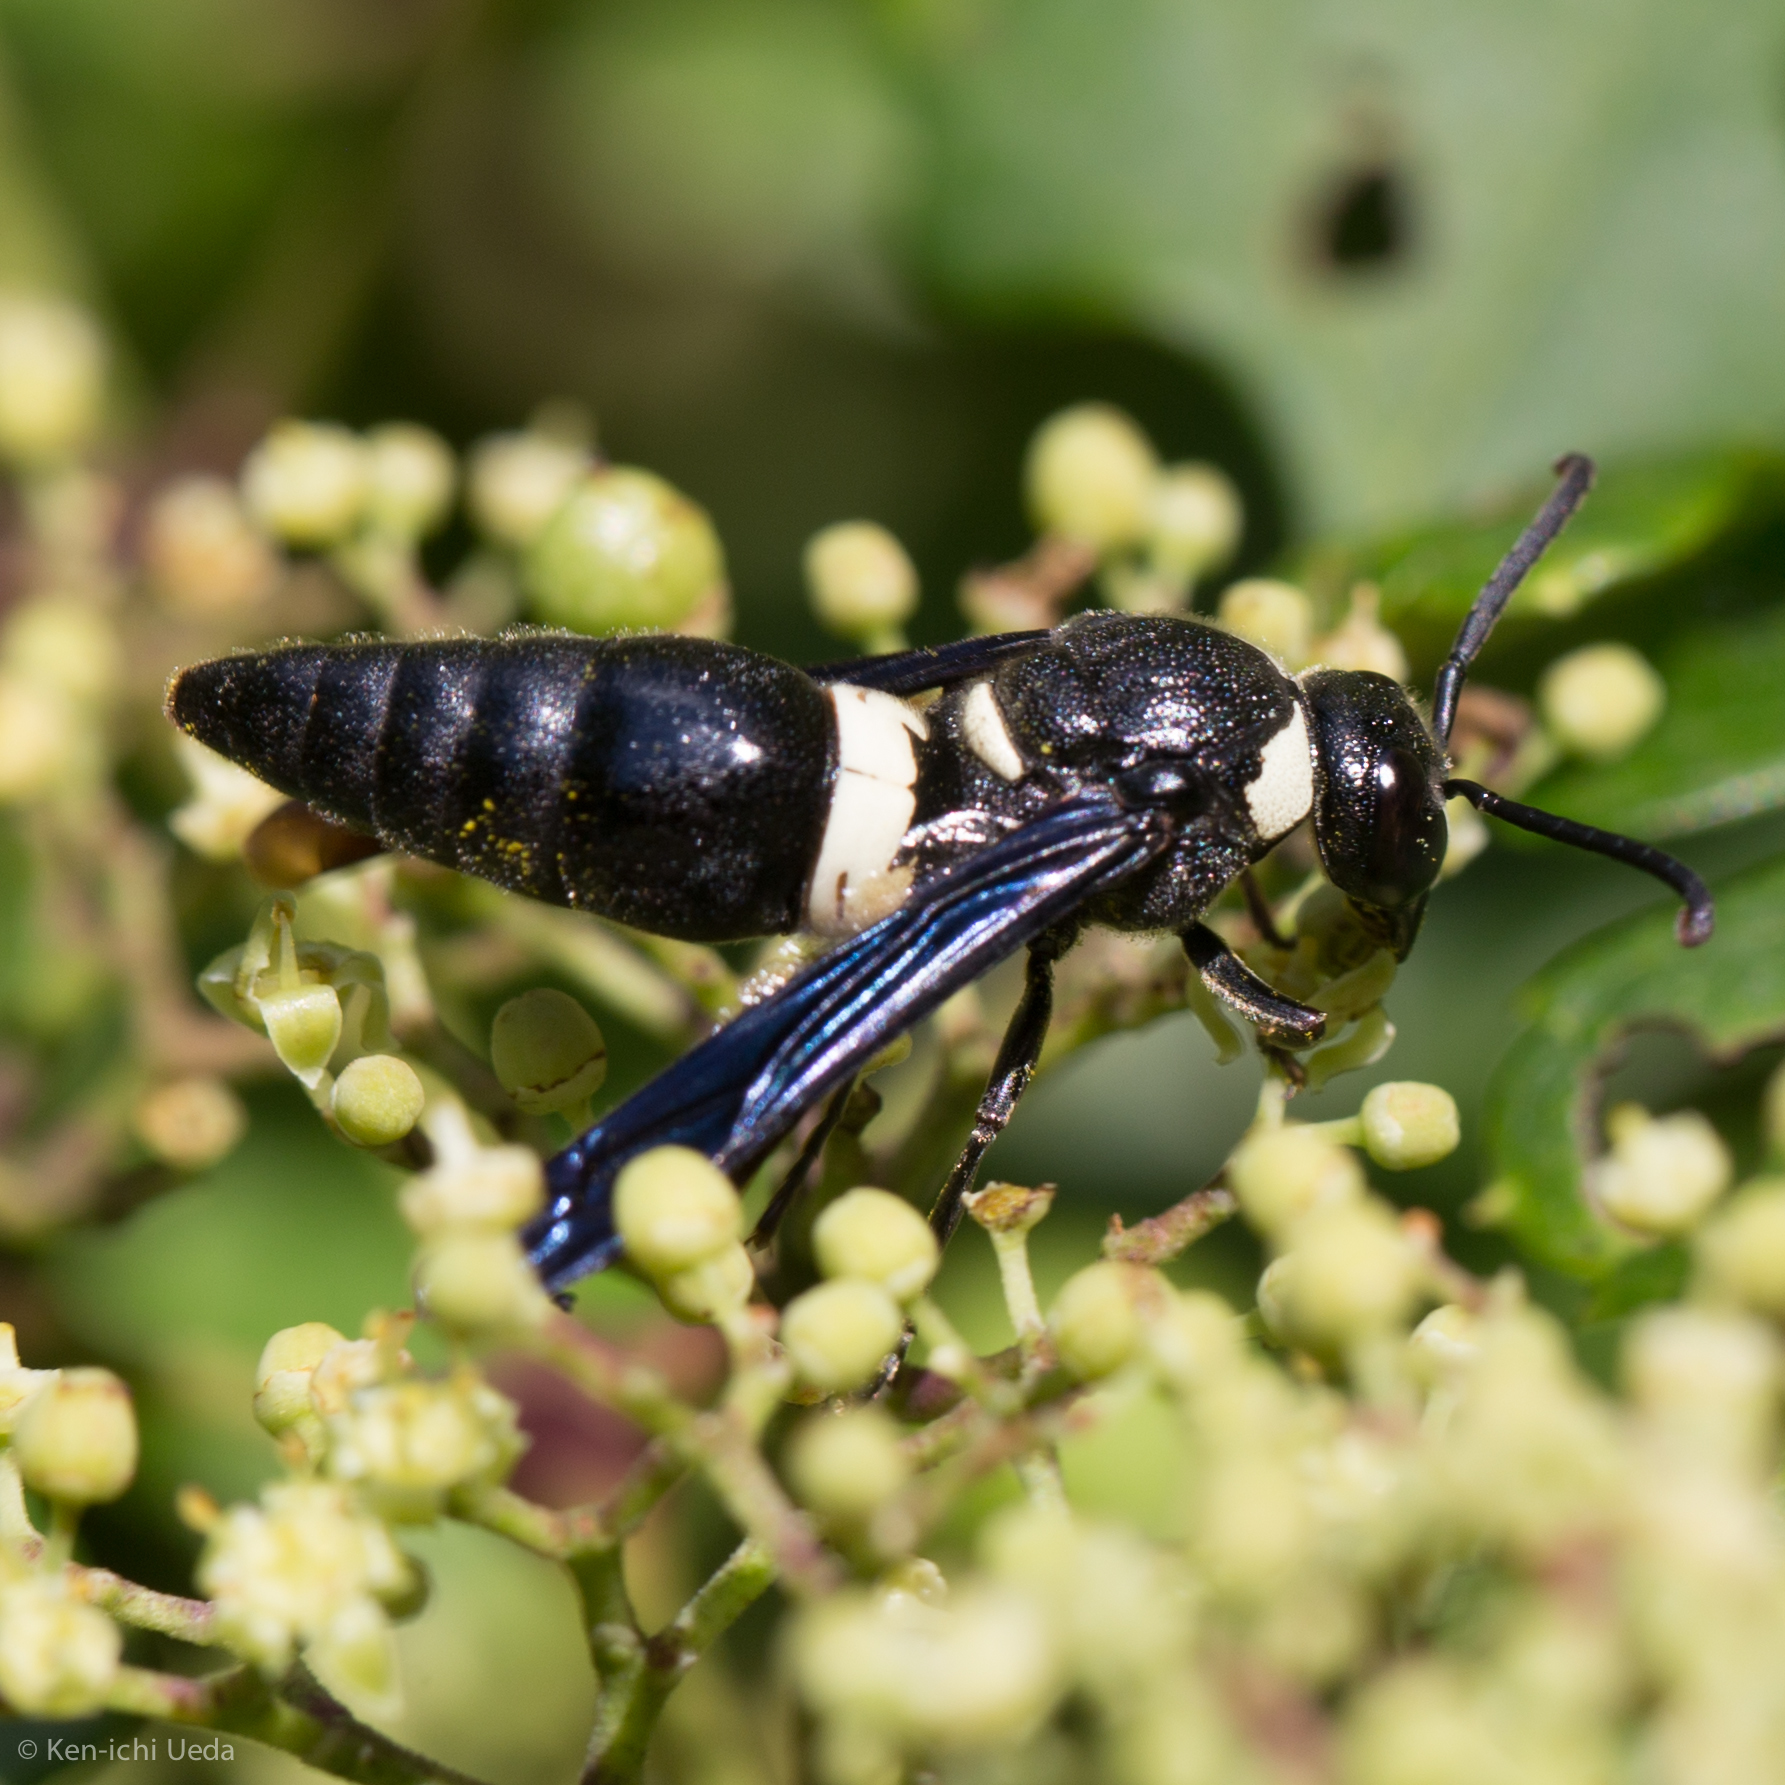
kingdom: Animalia
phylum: Arthropoda
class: Insecta
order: Hymenoptera
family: Eumenidae
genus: Monobia
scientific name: Monobia quadridens
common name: Four-toothed mason wasp
